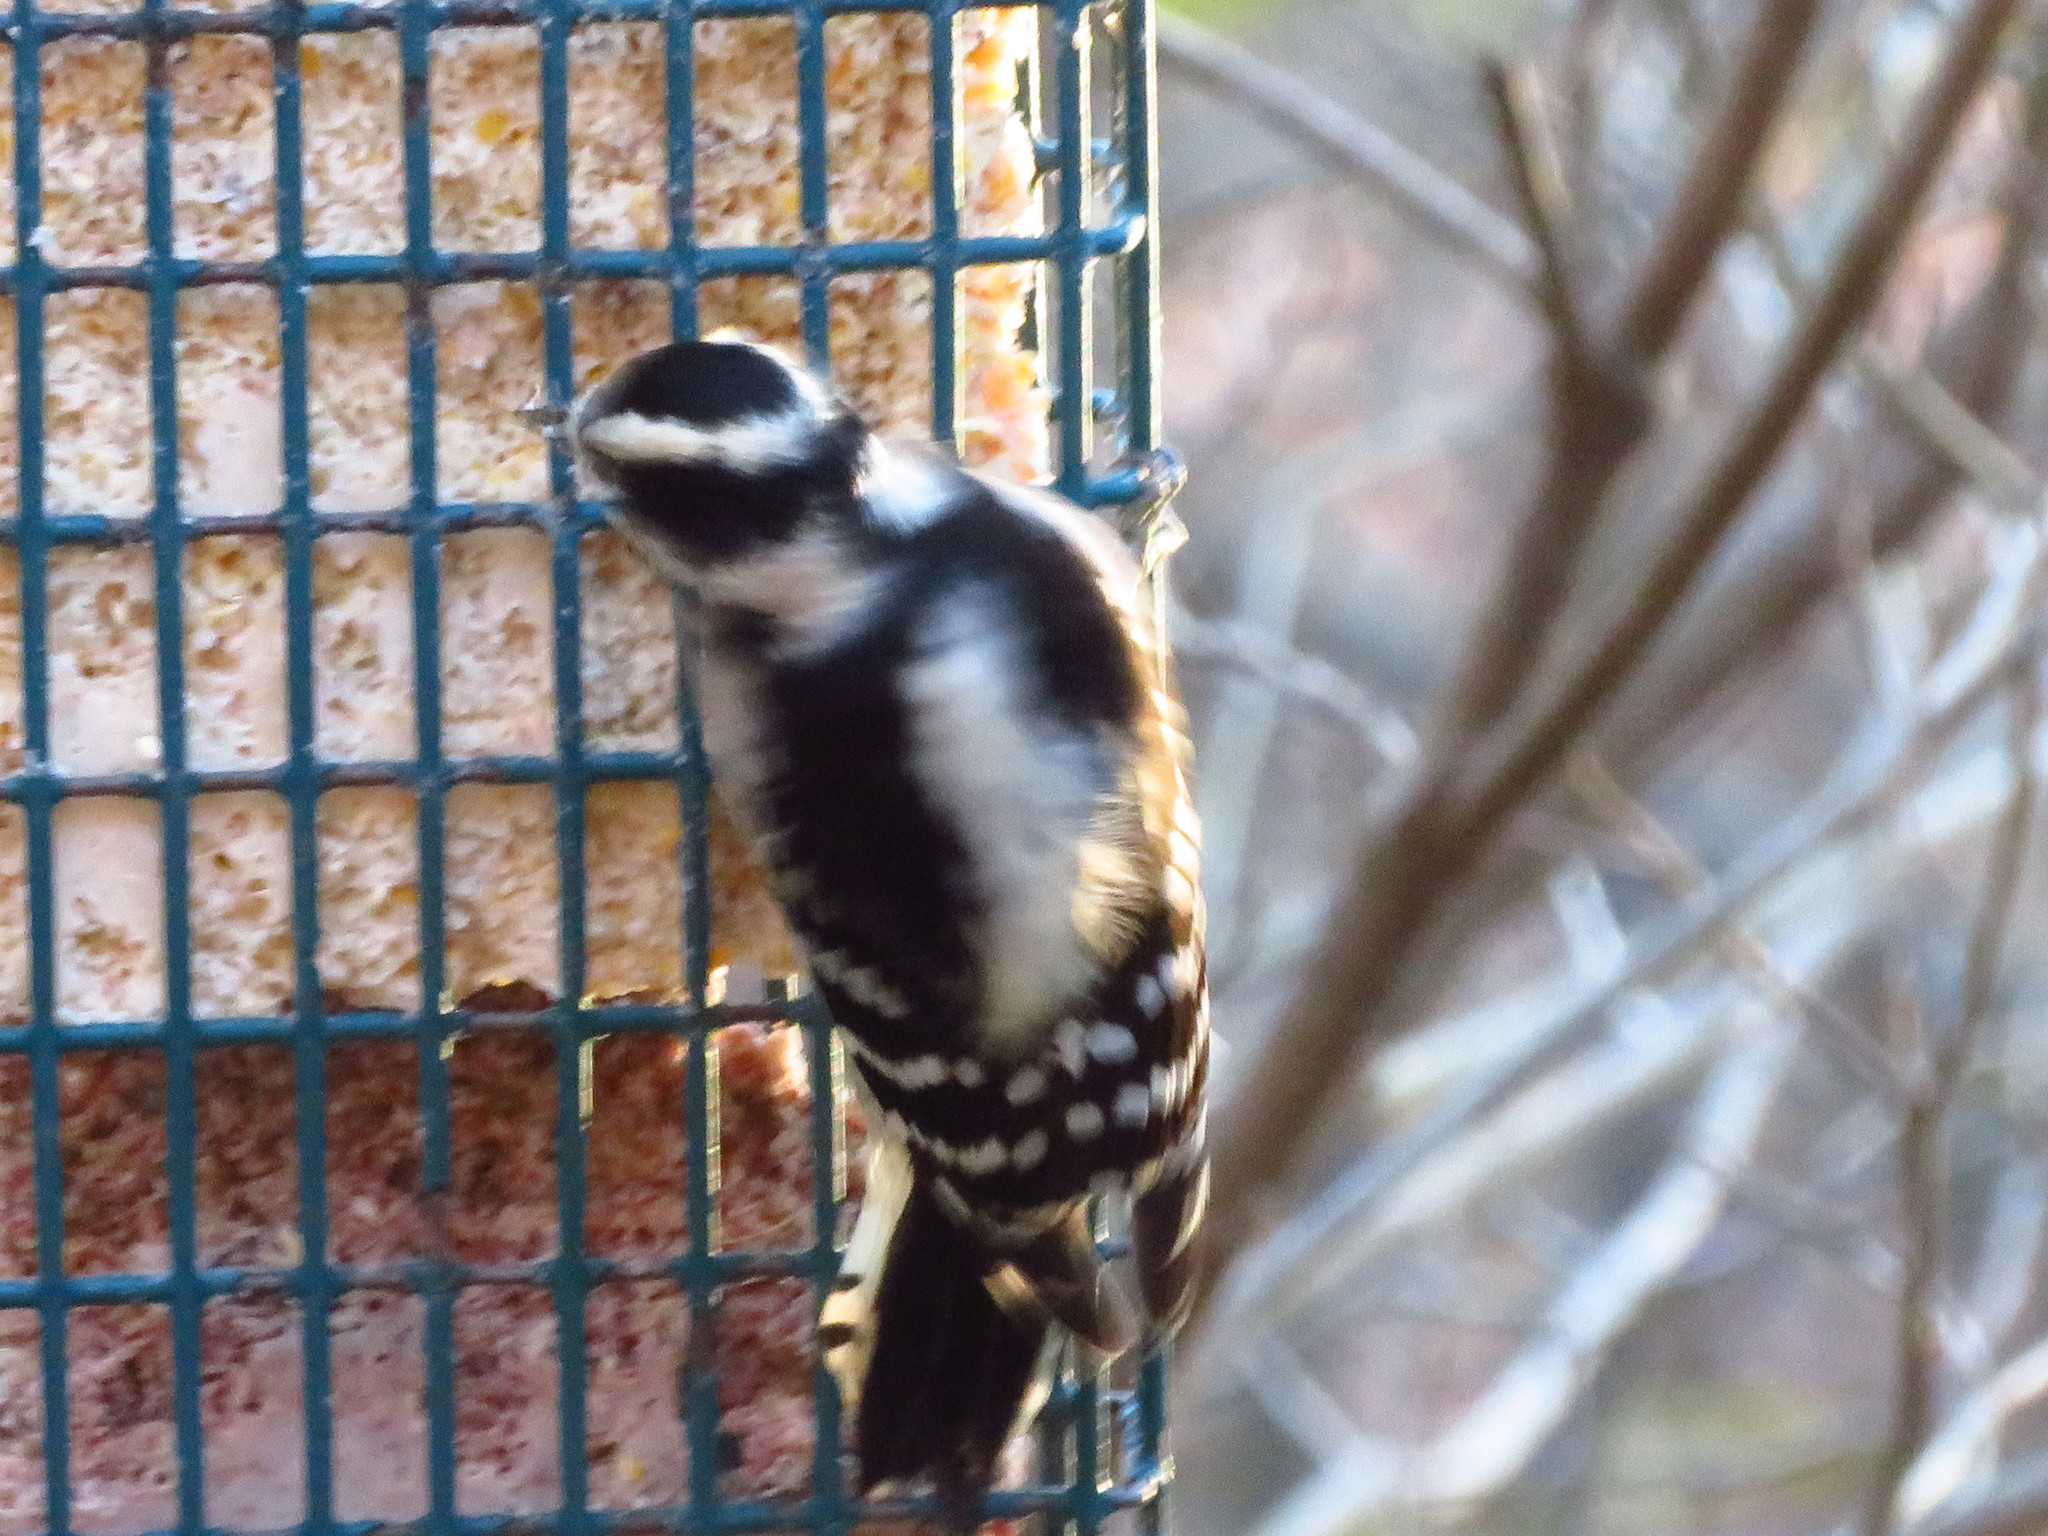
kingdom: Animalia
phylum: Chordata
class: Aves
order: Piciformes
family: Picidae
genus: Dryobates
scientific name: Dryobates pubescens
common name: Downy woodpecker
